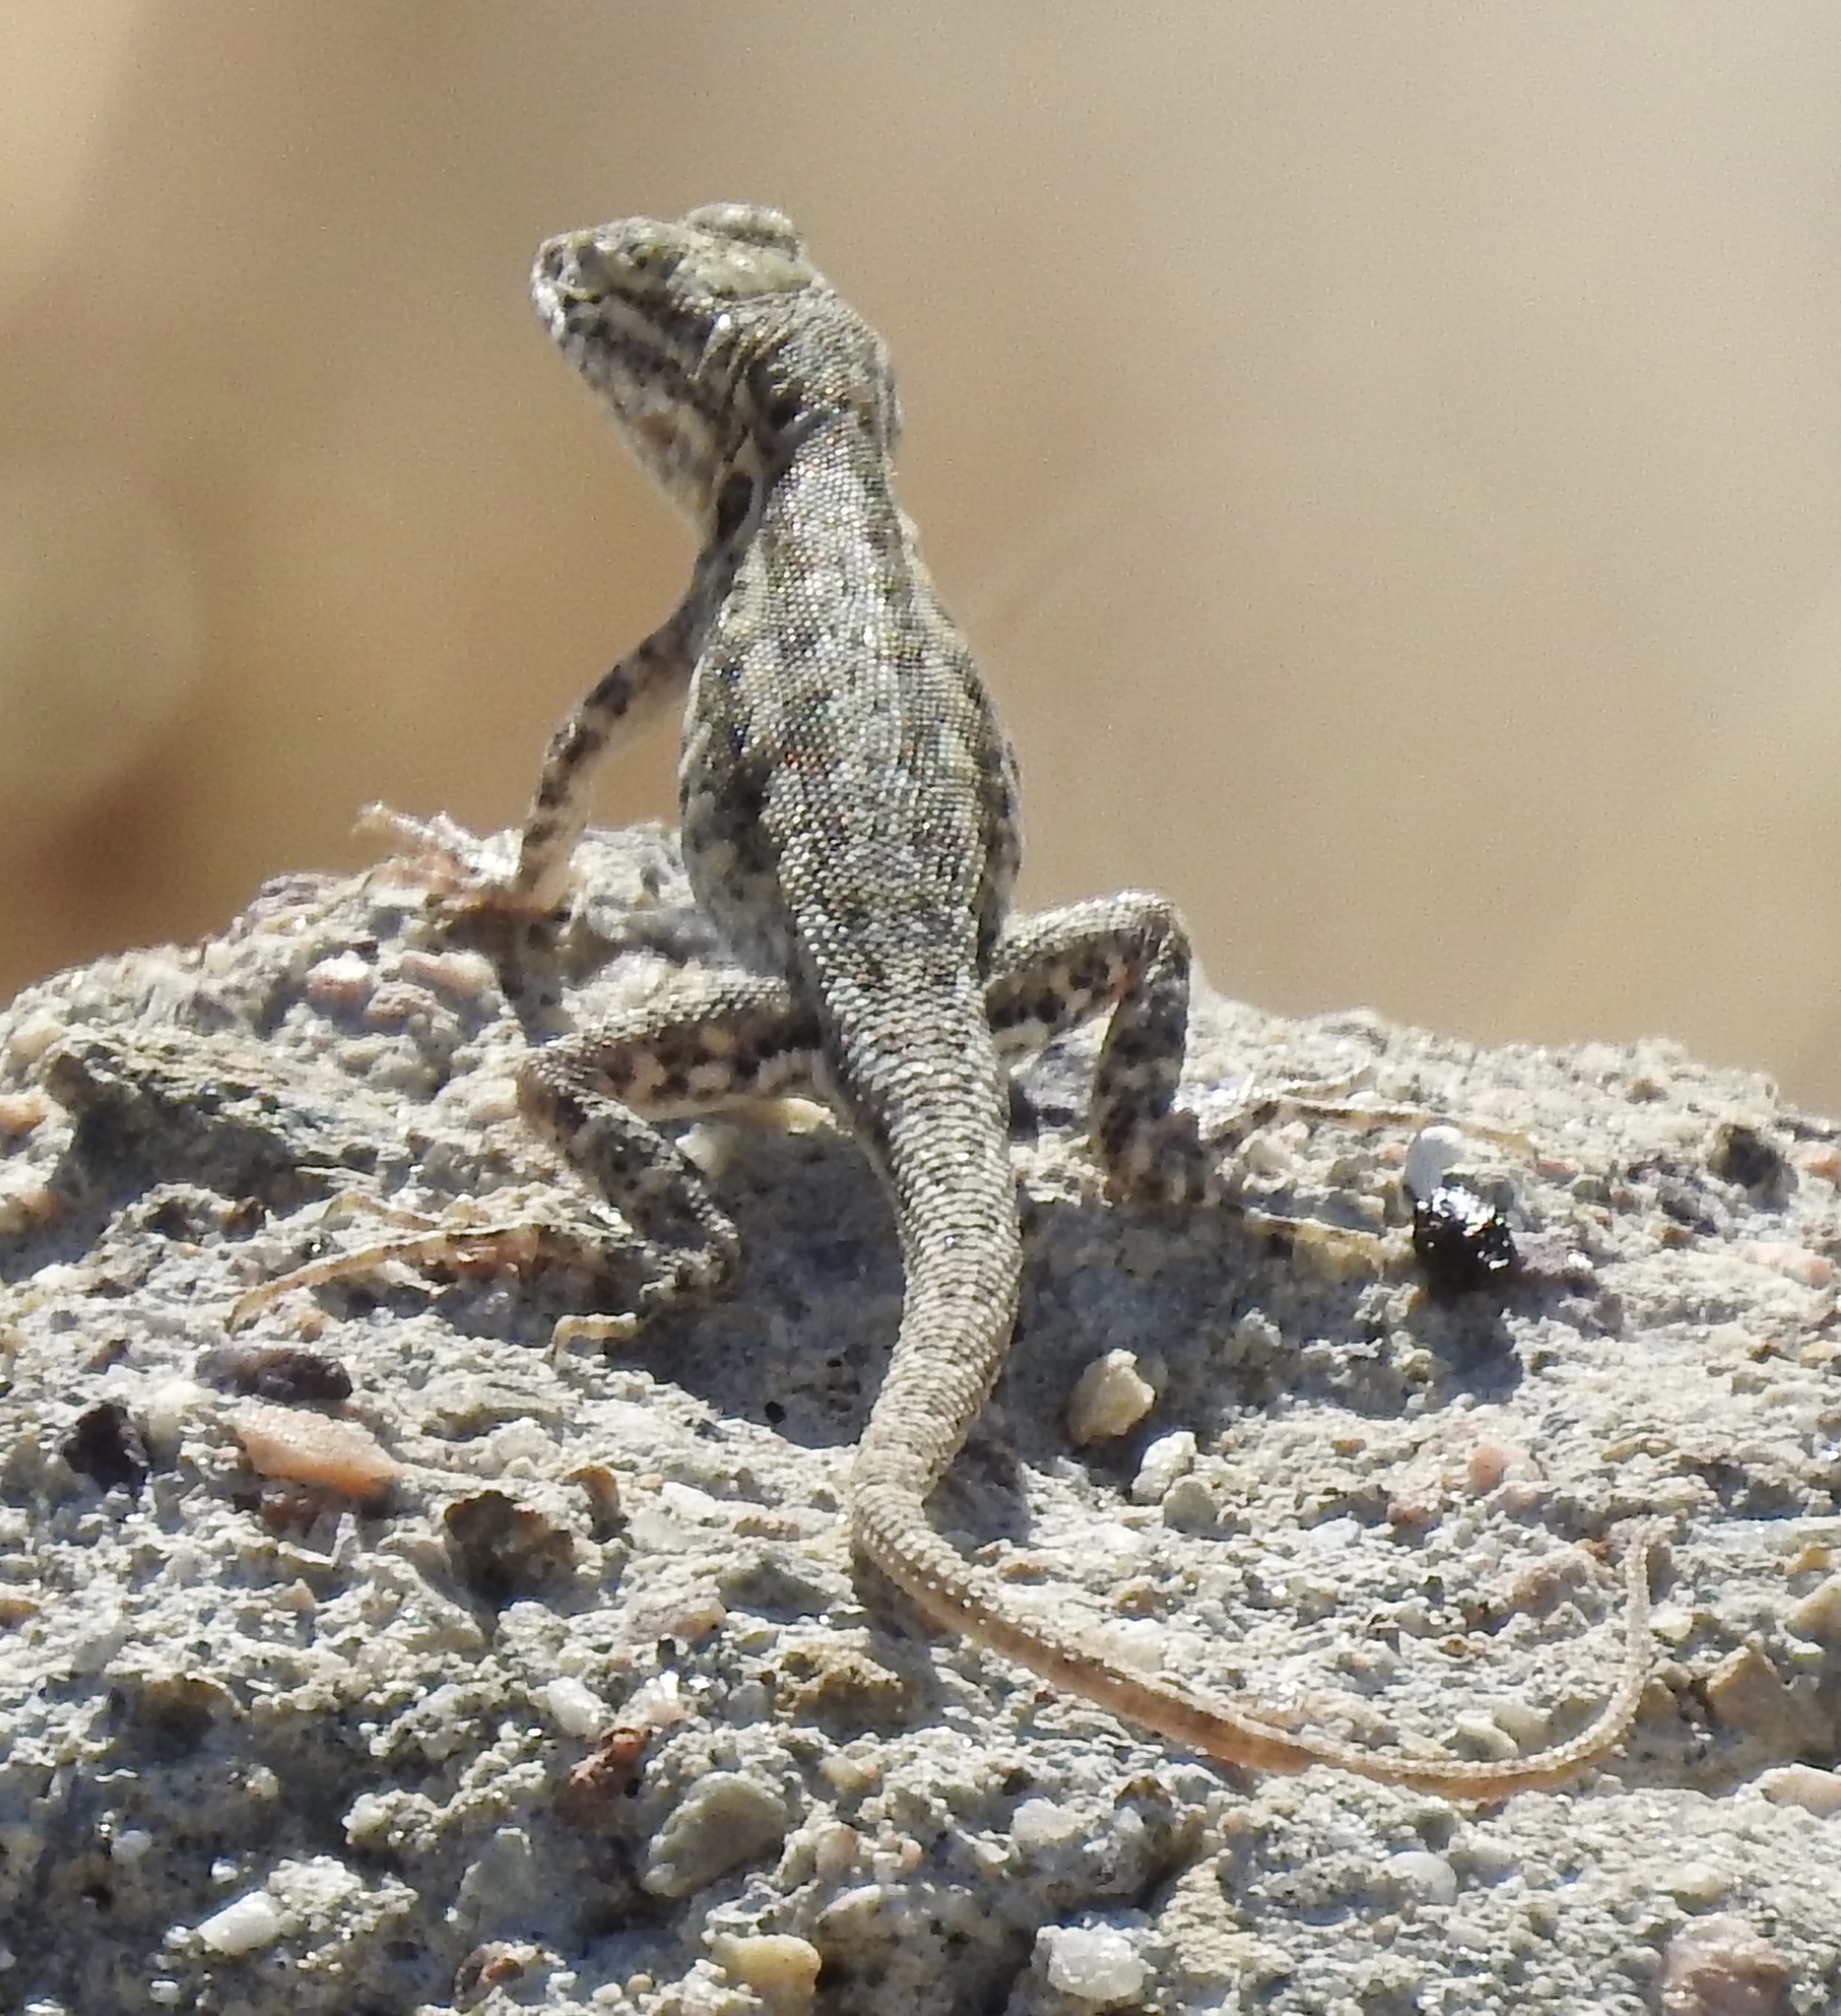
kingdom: Animalia
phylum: Chordata
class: Squamata
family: Phrynosomatidae
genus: Uta
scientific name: Uta stansburiana
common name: Side-blotched lizard
